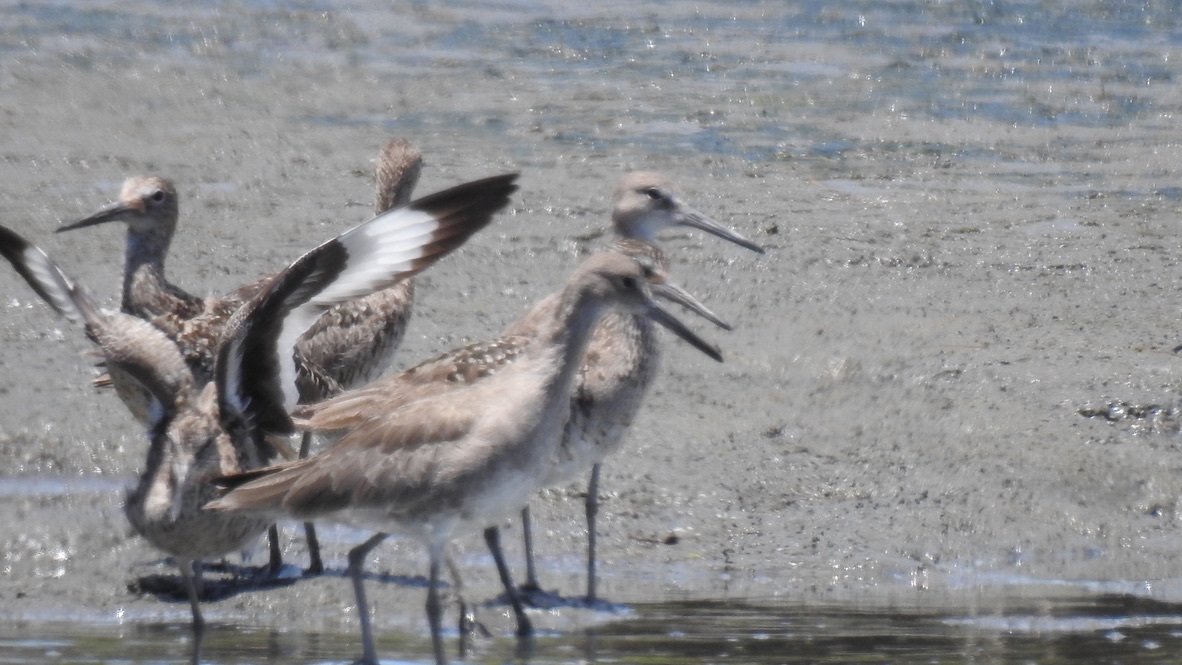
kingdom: Animalia
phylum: Chordata
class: Aves
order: Charadriiformes
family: Scolopacidae
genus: Tringa
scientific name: Tringa semipalmata
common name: Willet
